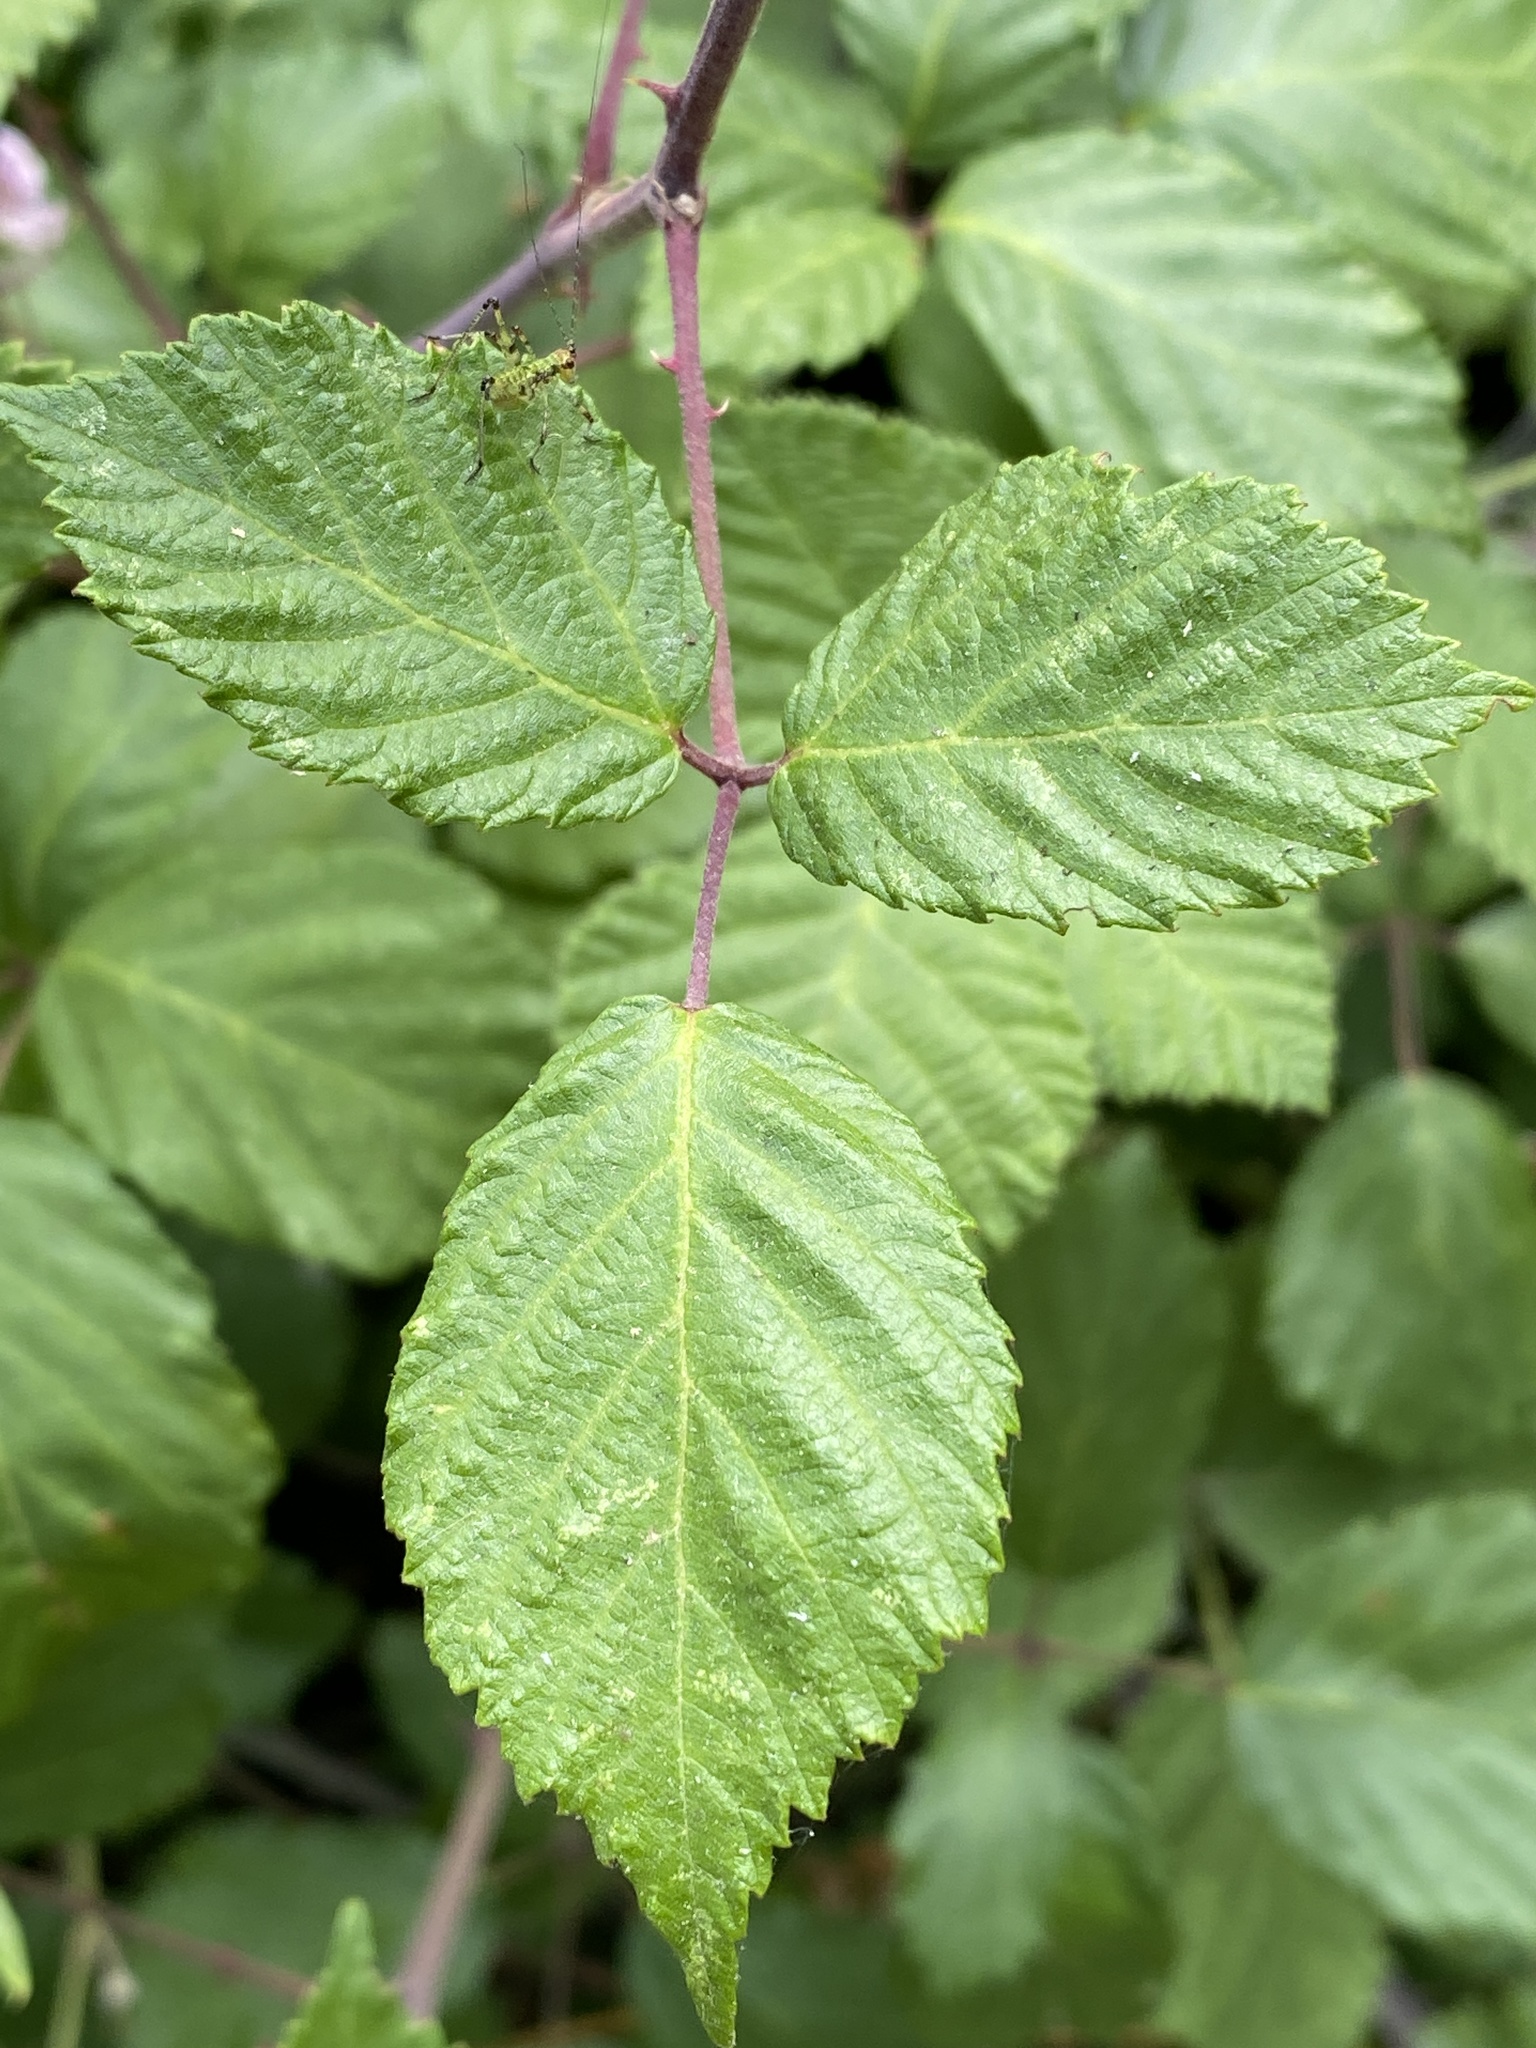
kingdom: Plantae
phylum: Tracheophyta
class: Magnoliopsida
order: Rosales
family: Rosaceae
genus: Rubus
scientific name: Rubus ulmifolius
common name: Elmleaf blackberry
